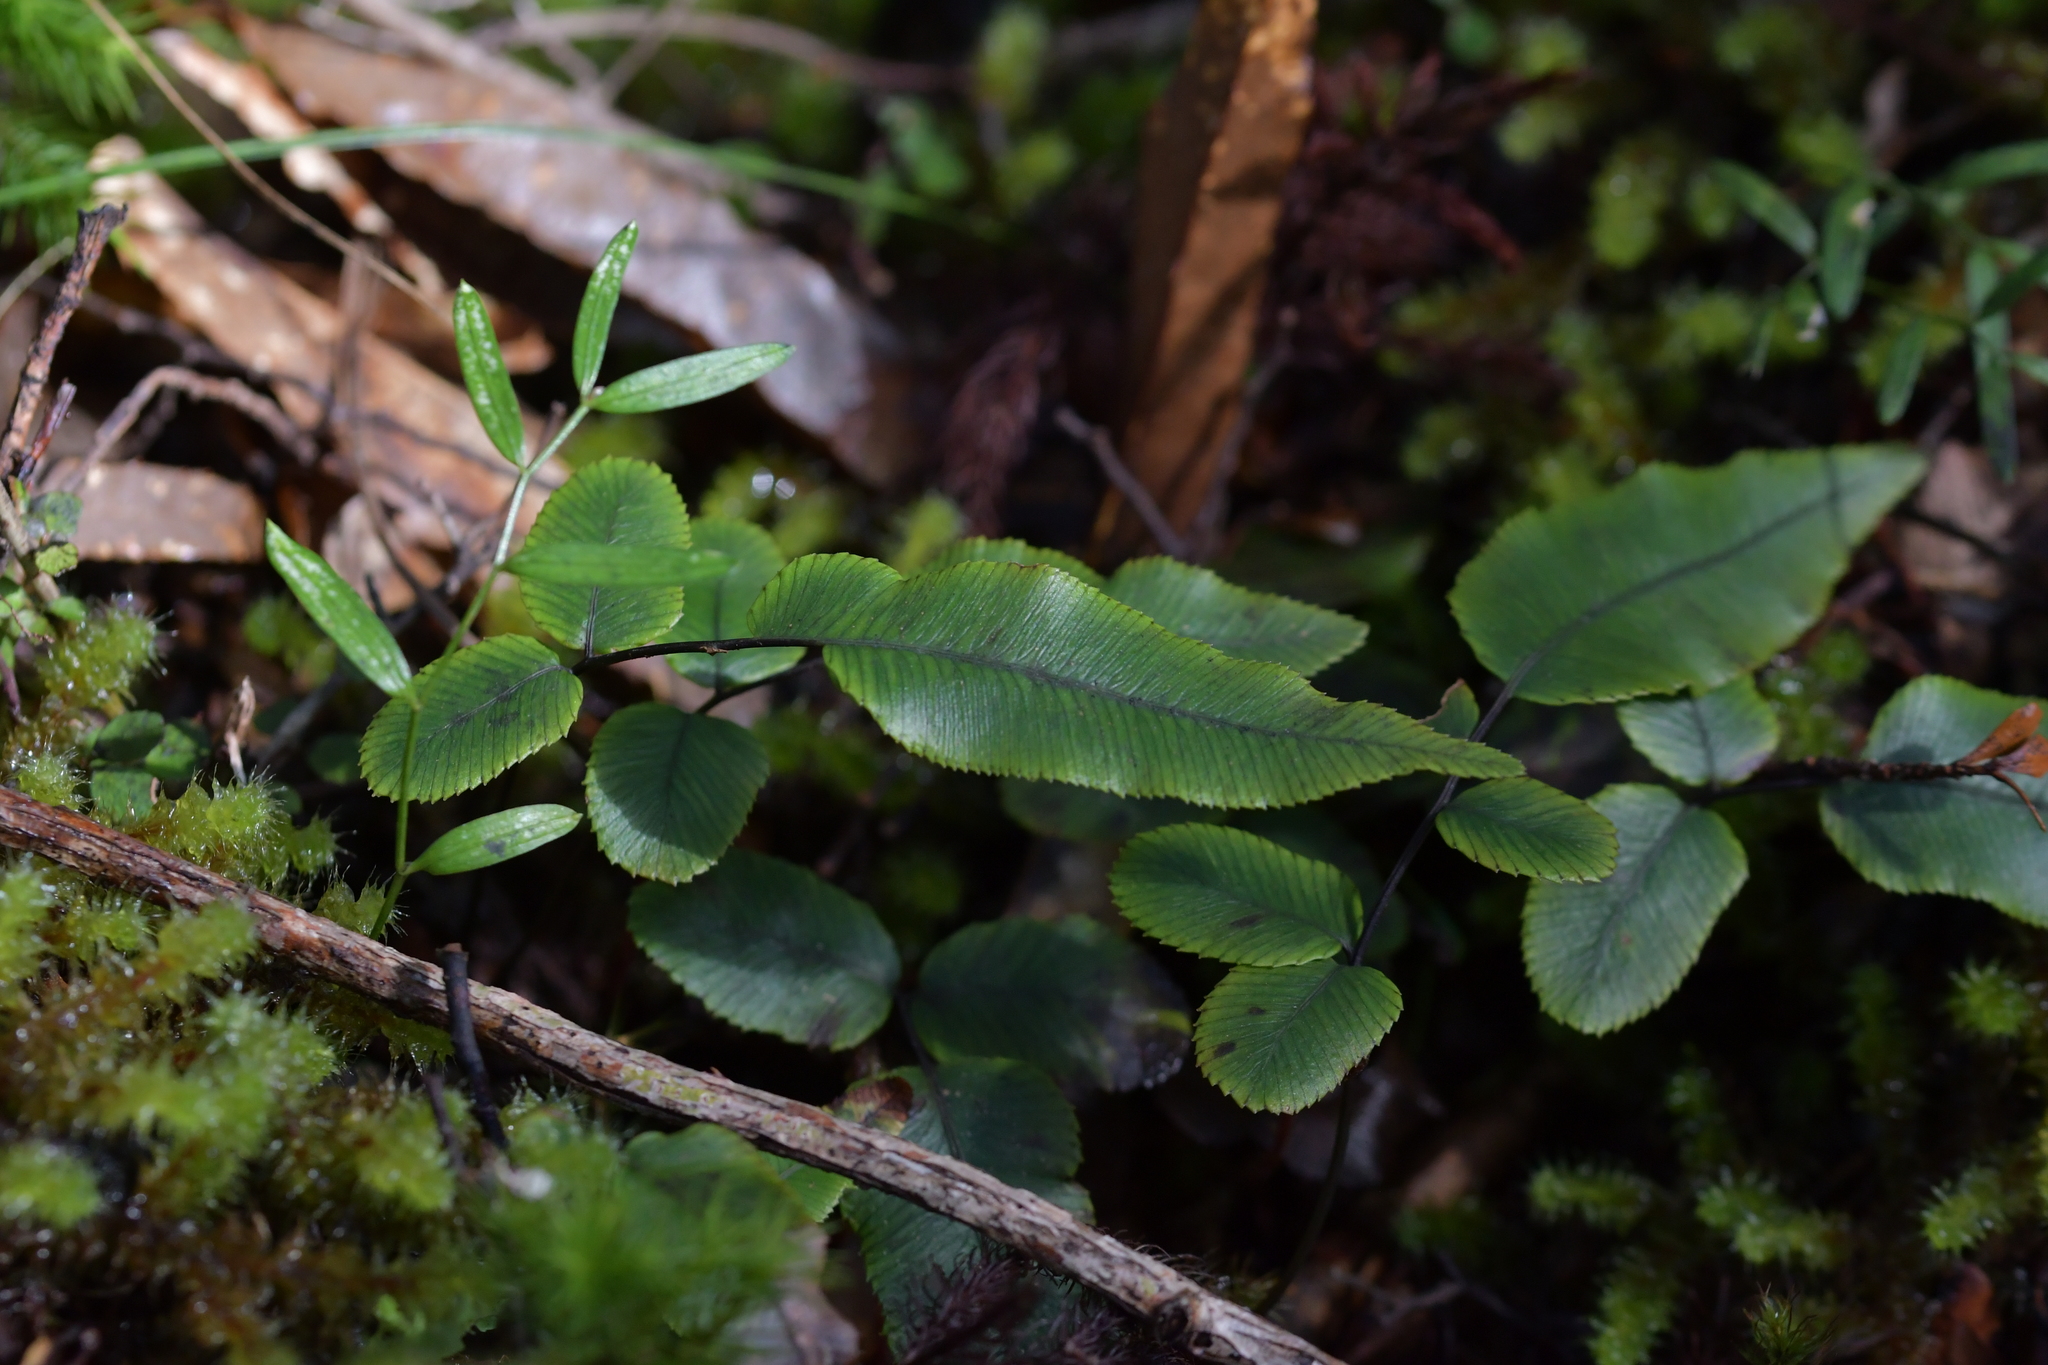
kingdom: Plantae
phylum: Tracheophyta
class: Polypodiopsida
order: Polypodiales
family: Blechnaceae
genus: Parablechnum
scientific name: Parablechnum procerum
